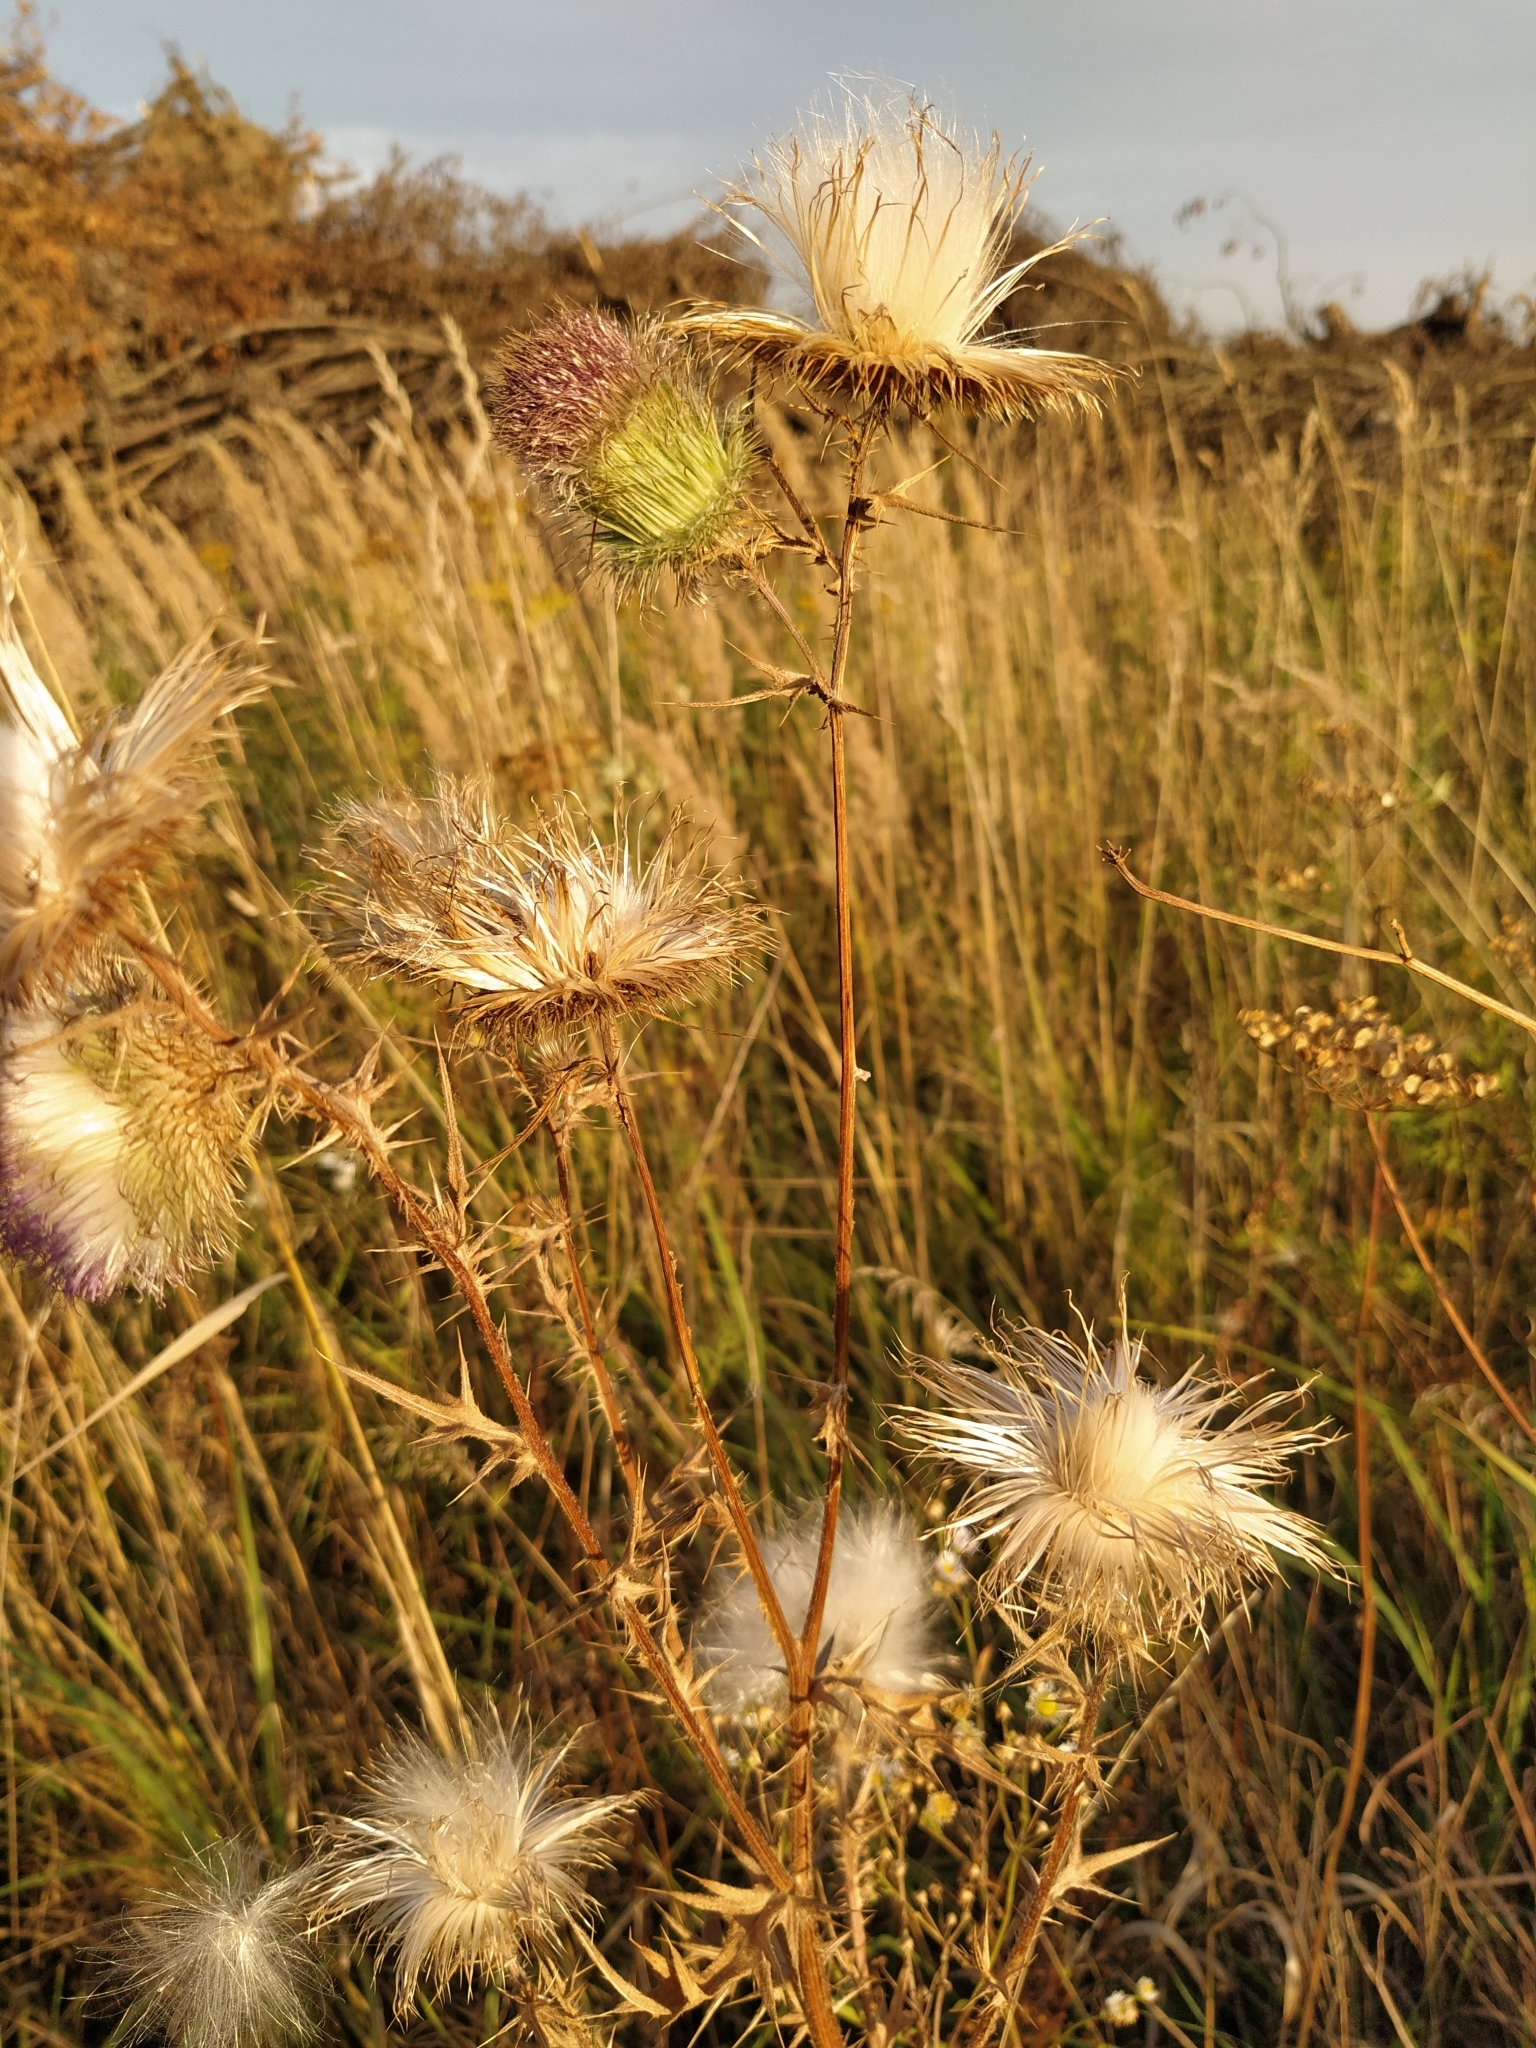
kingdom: Plantae
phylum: Tracheophyta
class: Magnoliopsida
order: Asterales
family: Asteraceae
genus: Cirsium
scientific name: Cirsium vulgare
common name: Bull thistle
